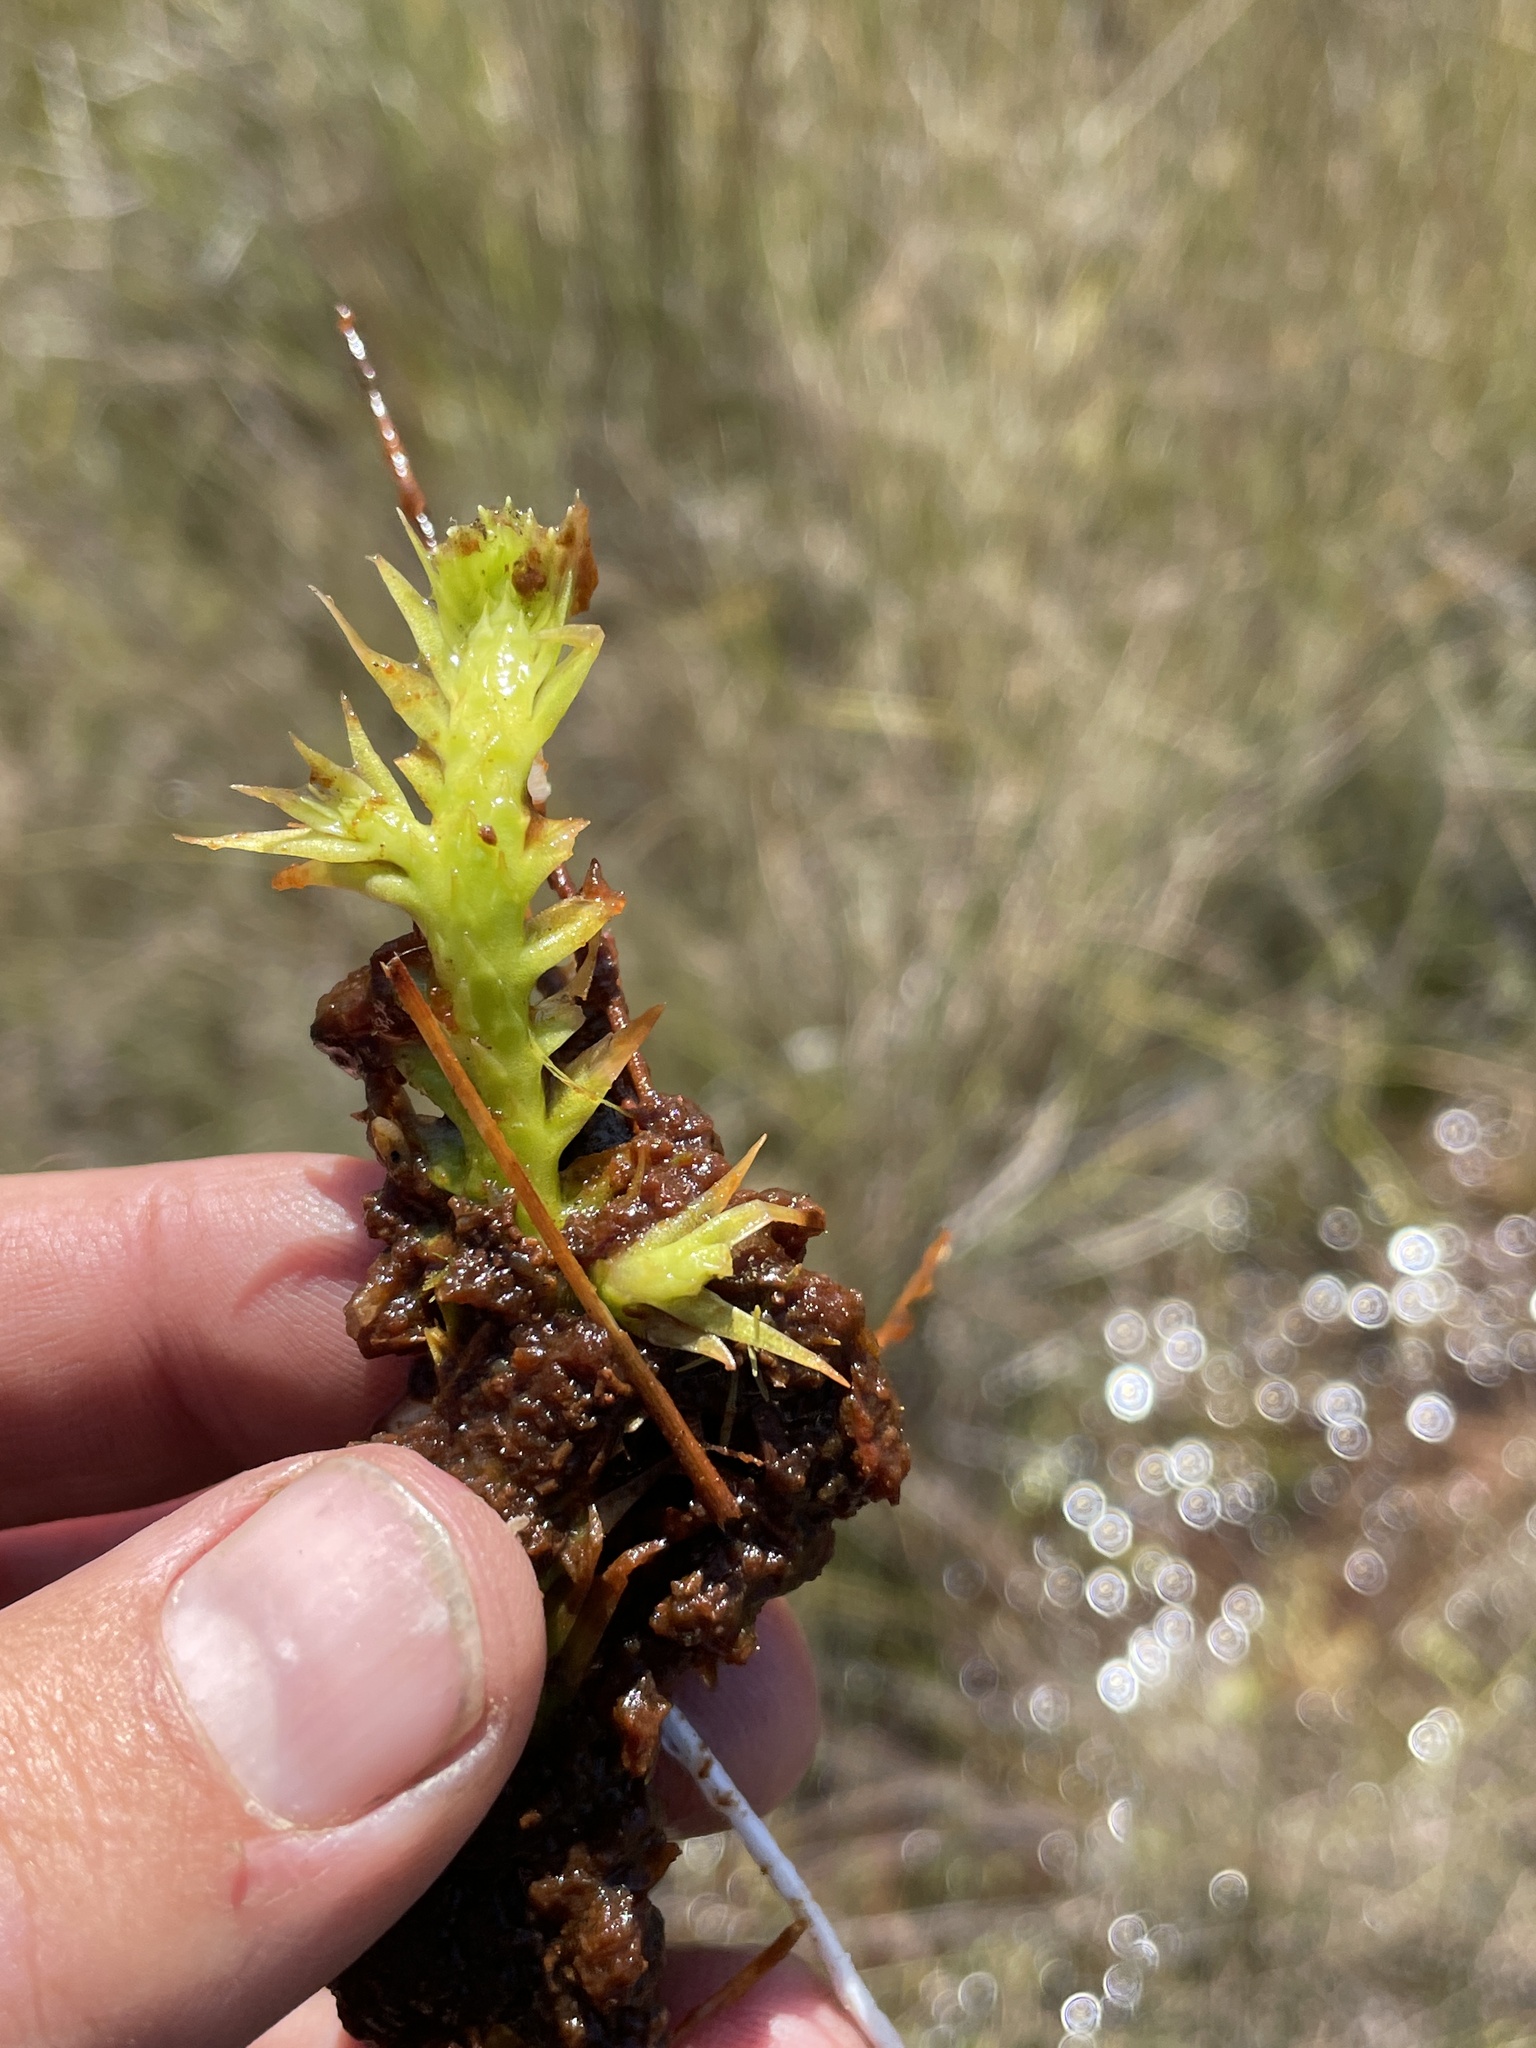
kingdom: Plantae
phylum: Tracheophyta
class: Lycopodiopsida
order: Lycopodiales
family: Lycopodiaceae
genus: Pseudolycopodiella
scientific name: Pseudolycopodiella sarcocaulos
